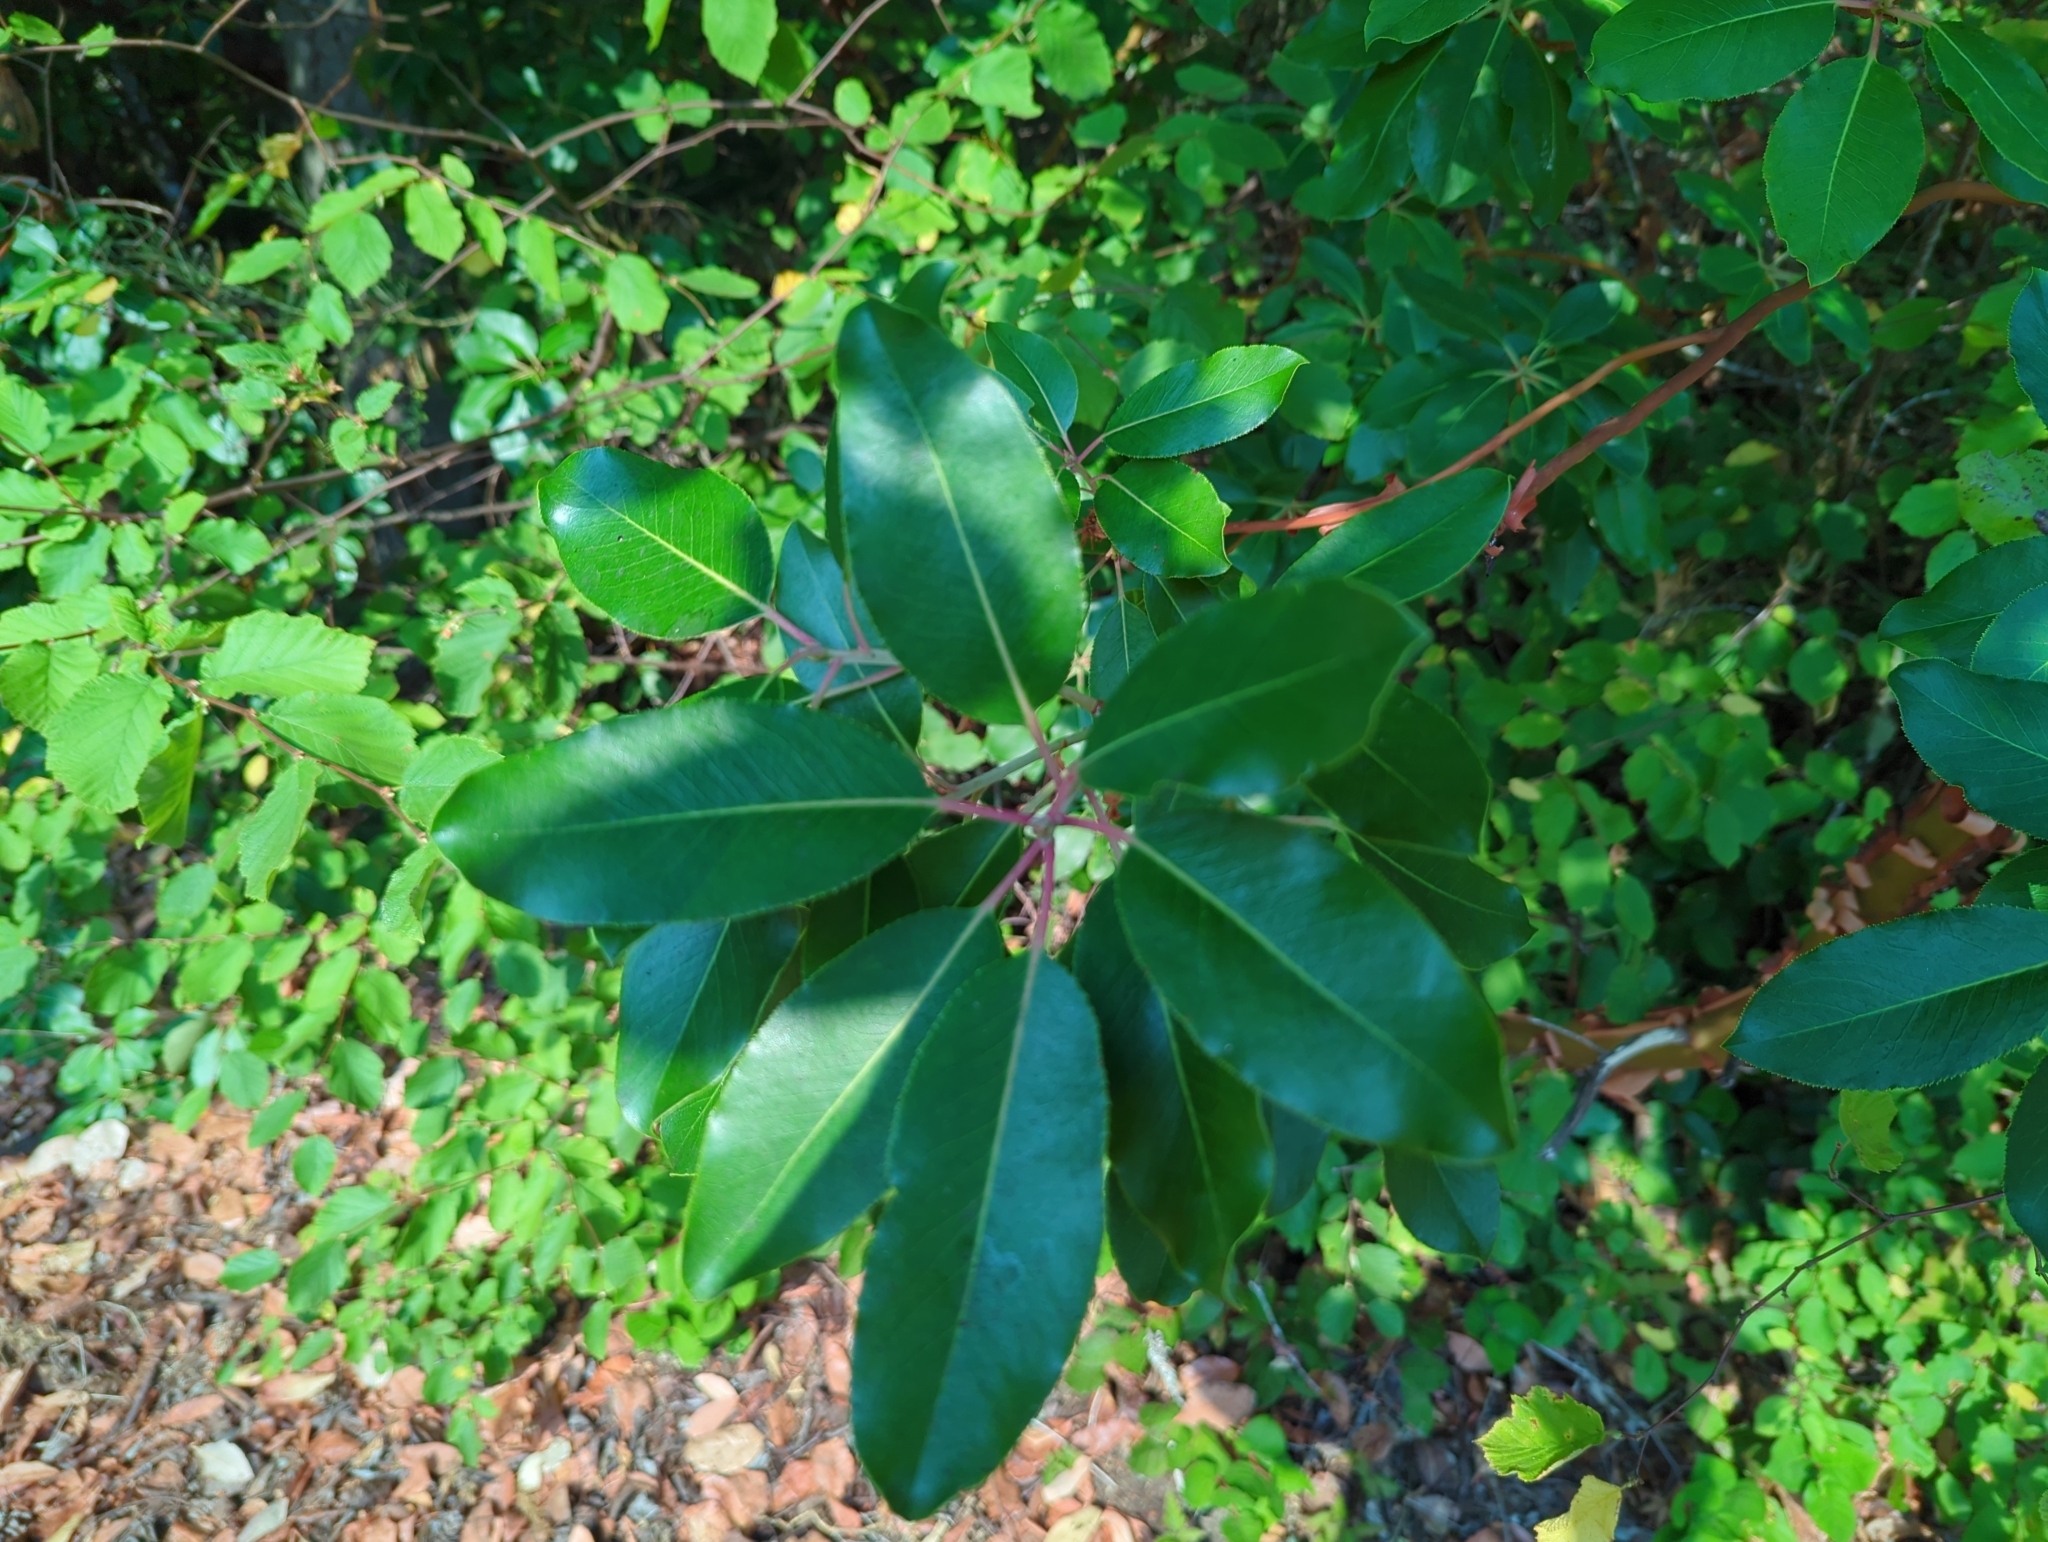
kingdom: Plantae
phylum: Tracheophyta
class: Magnoliopsida
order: Ericales
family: Ericaceae
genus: Arbutus
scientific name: Arbutus menziesii
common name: Pacific madrone
